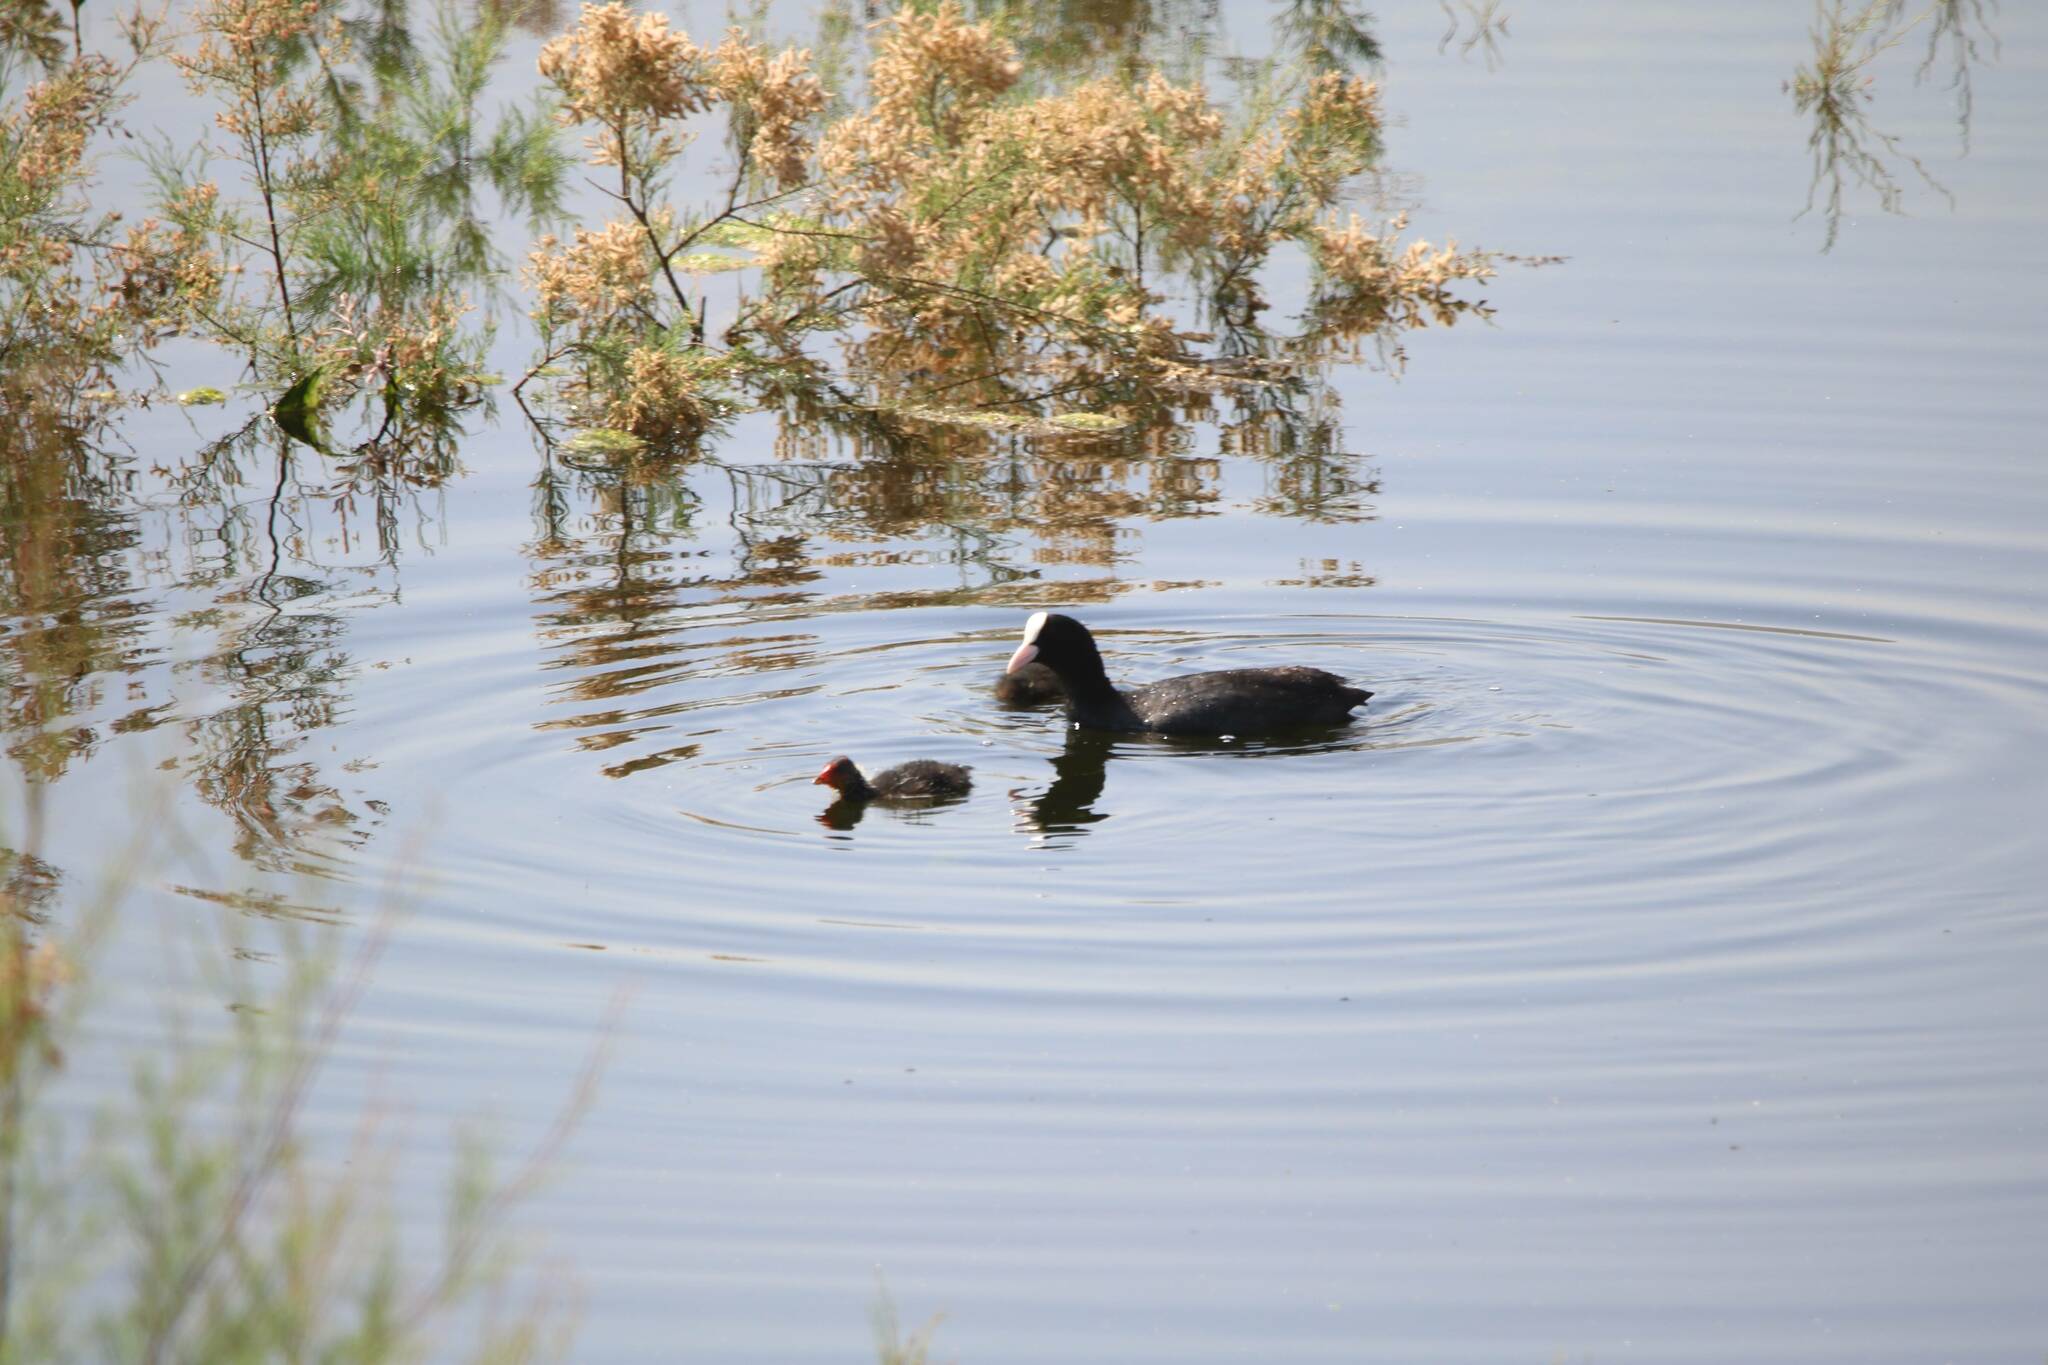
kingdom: Animalia
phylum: Chordata
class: Aves
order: Gruiformes
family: Rallidae
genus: Fulica
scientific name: Fulica atra
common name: Eurasian coot
